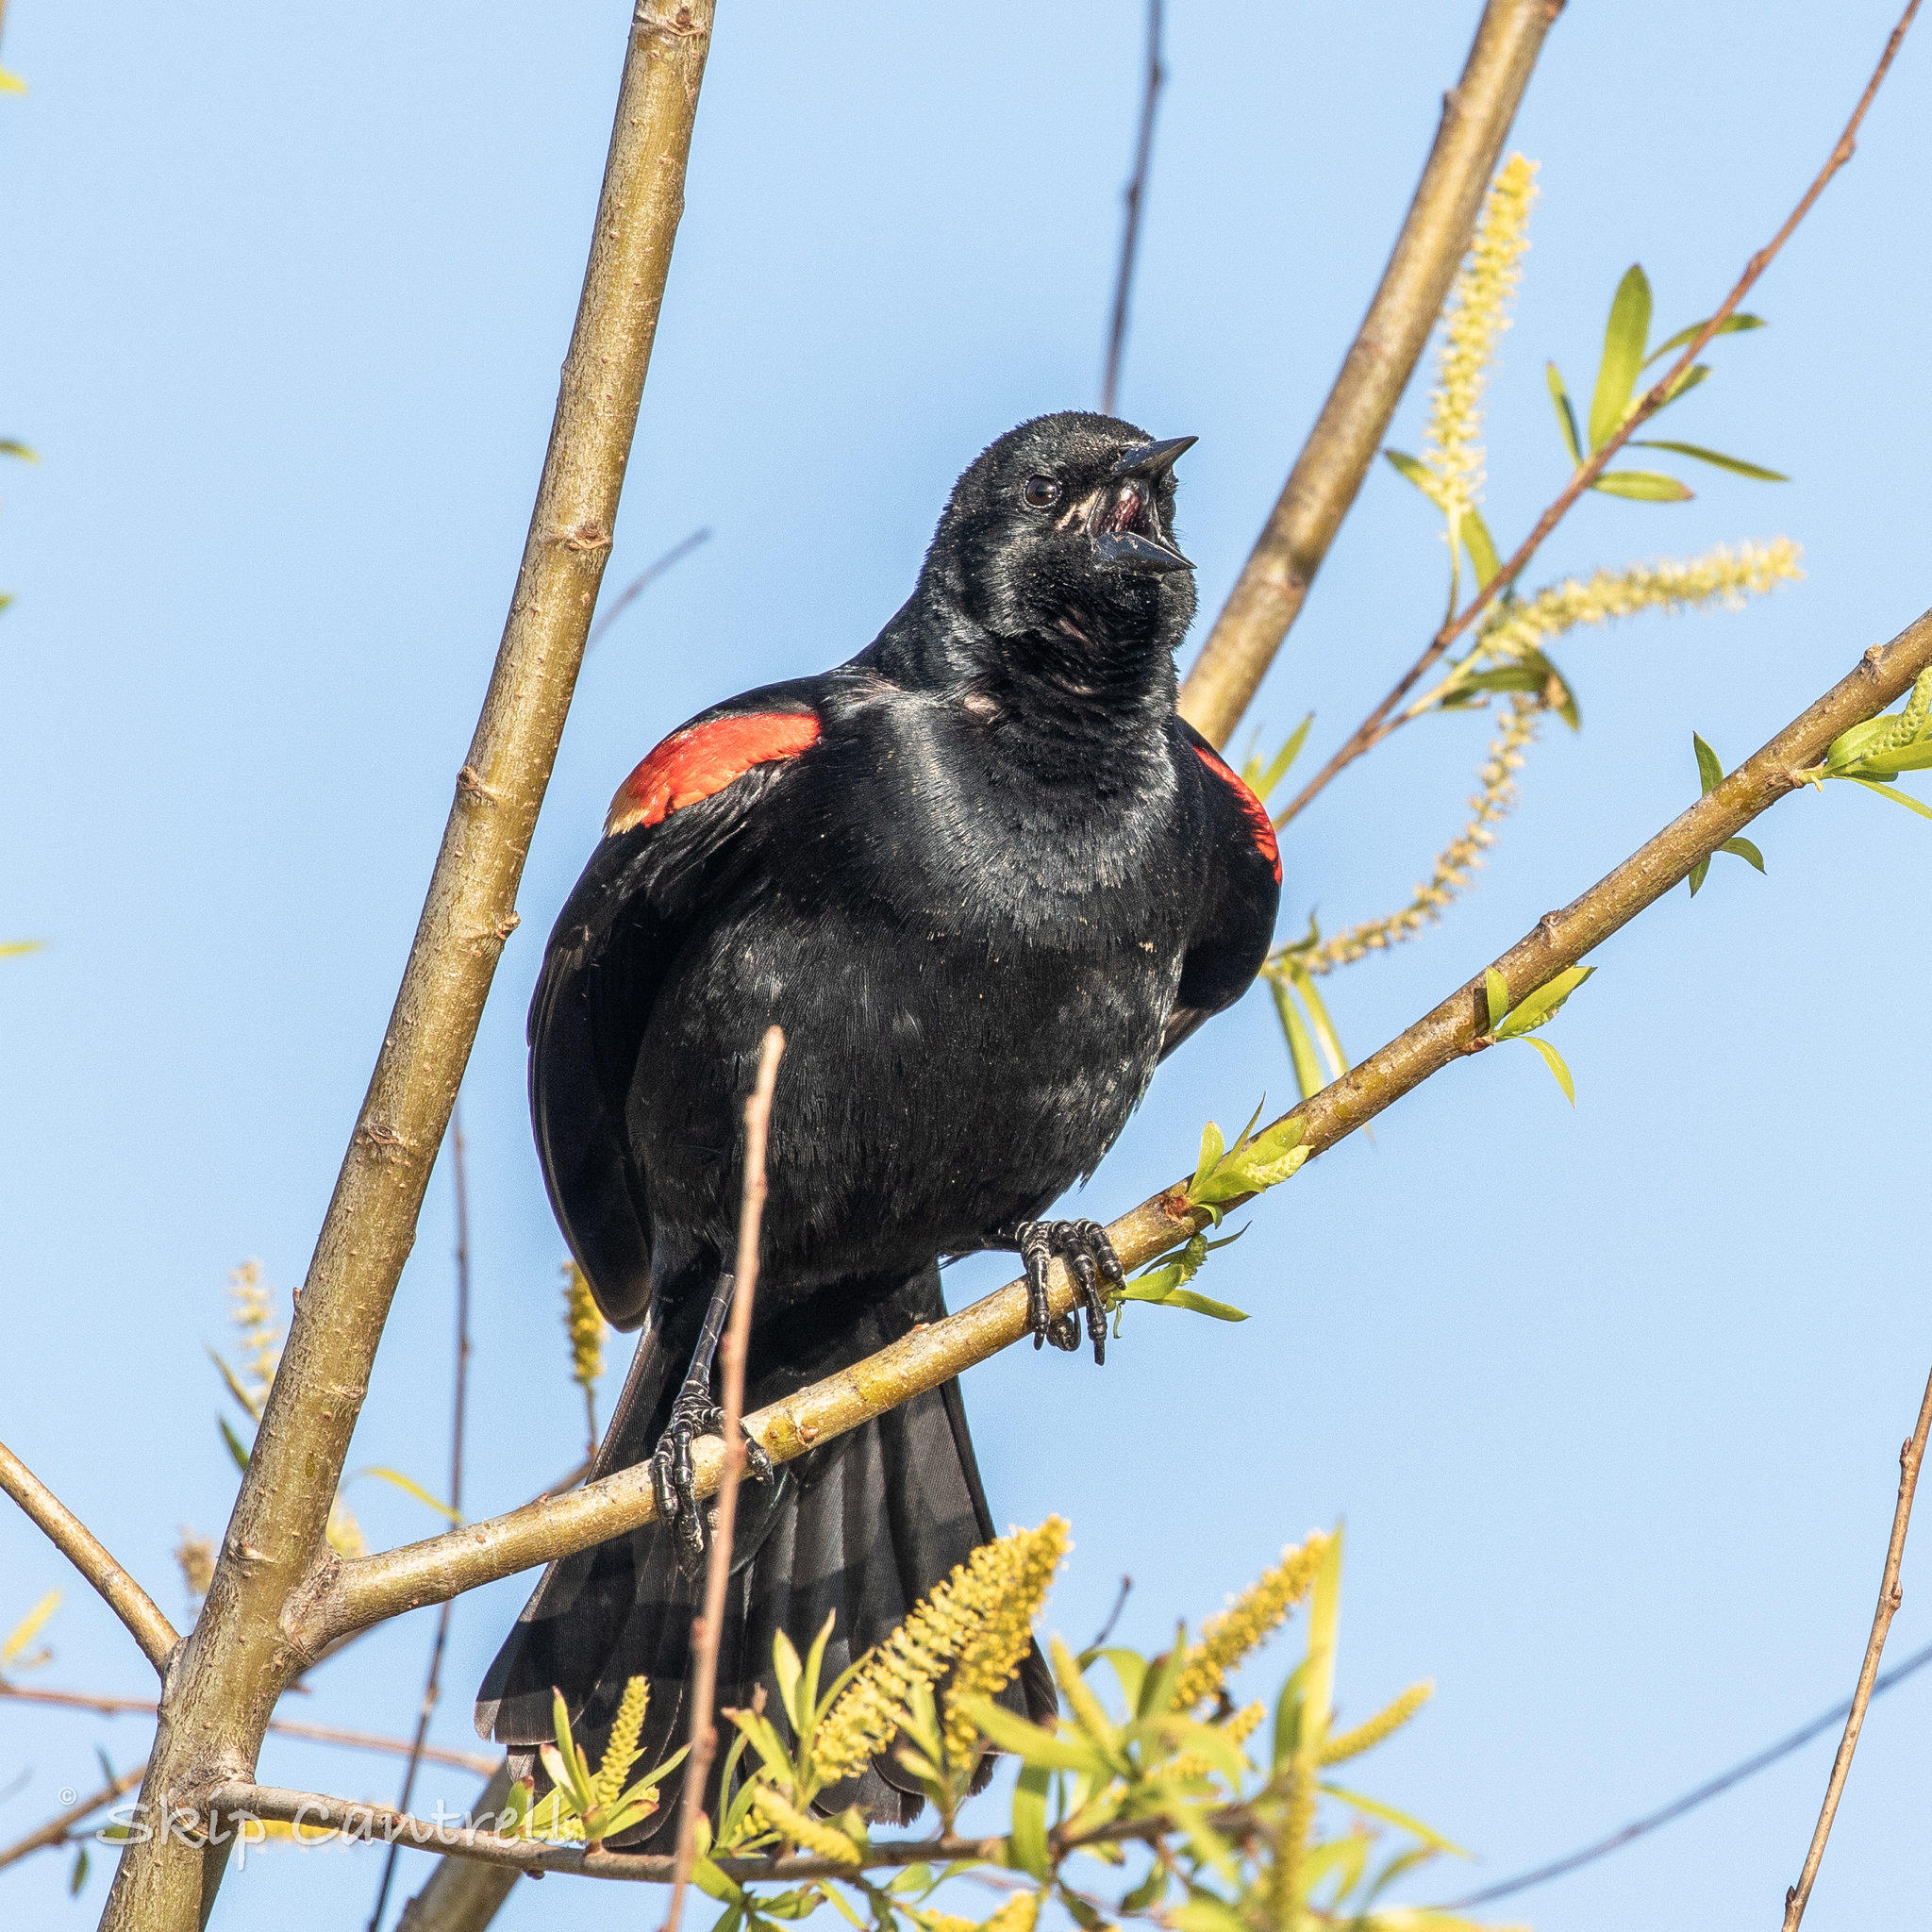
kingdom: Animalia
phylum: Chordata
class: Aves
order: Passeriformes
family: Icteridae
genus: Agelaius
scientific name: Agelaius phoeniceus
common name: Red-winged blackbird
